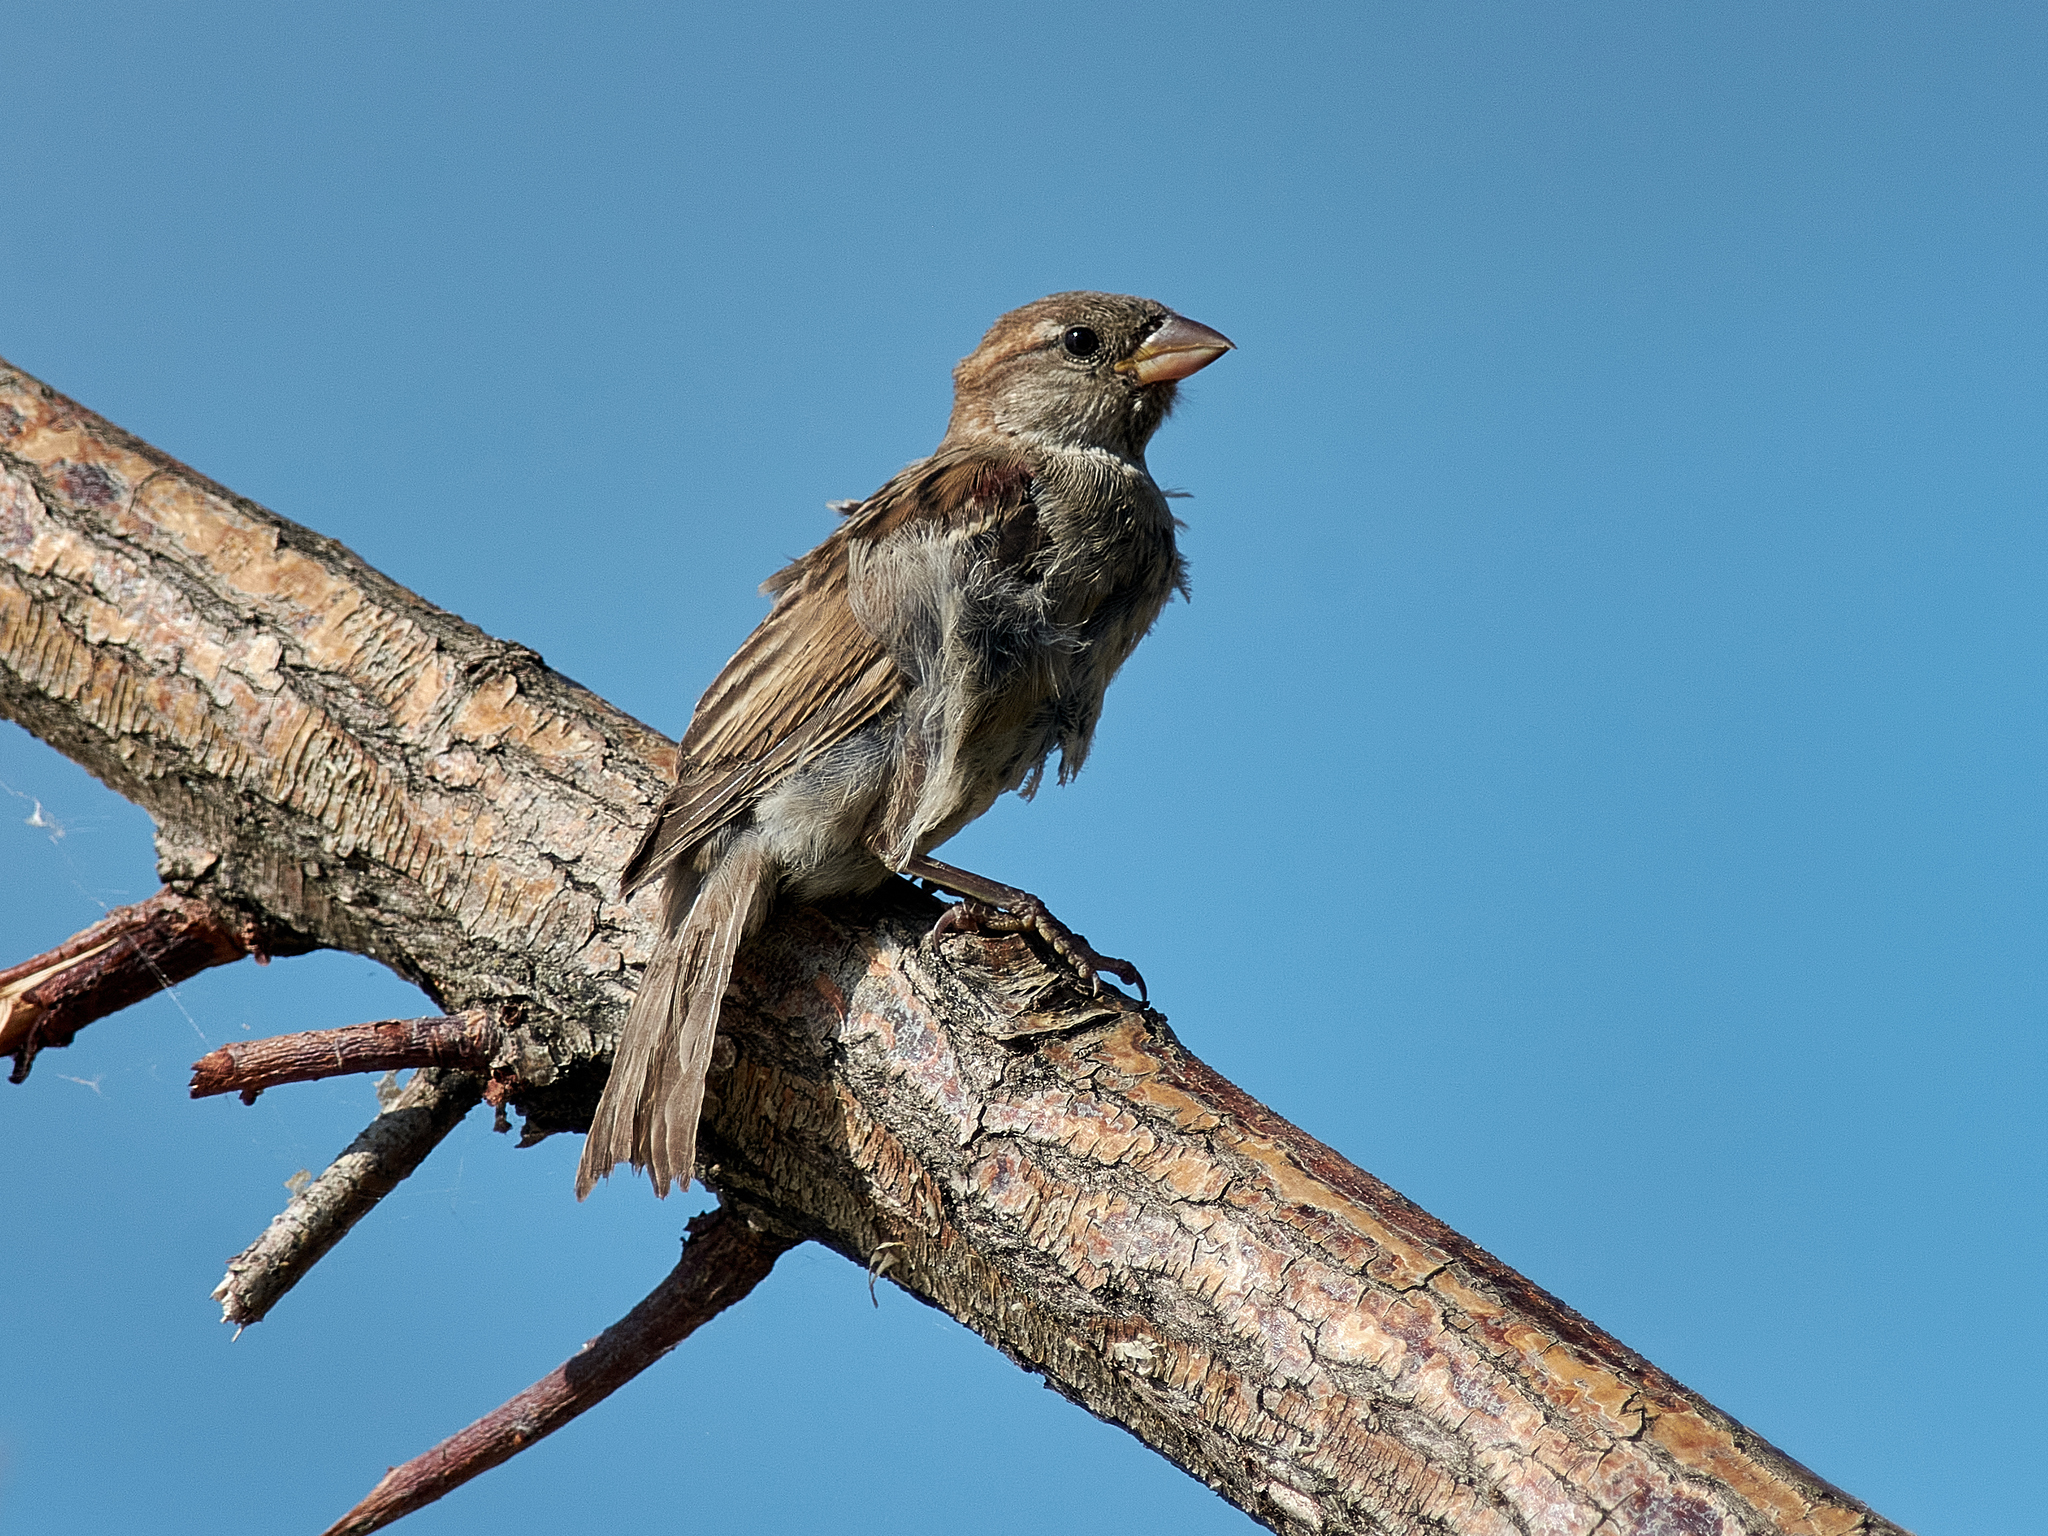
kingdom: Animalia
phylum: Chordata
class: Aves
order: Passeriformes
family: Passeridae
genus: Passer
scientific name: Passer domesticus
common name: House sparrow
